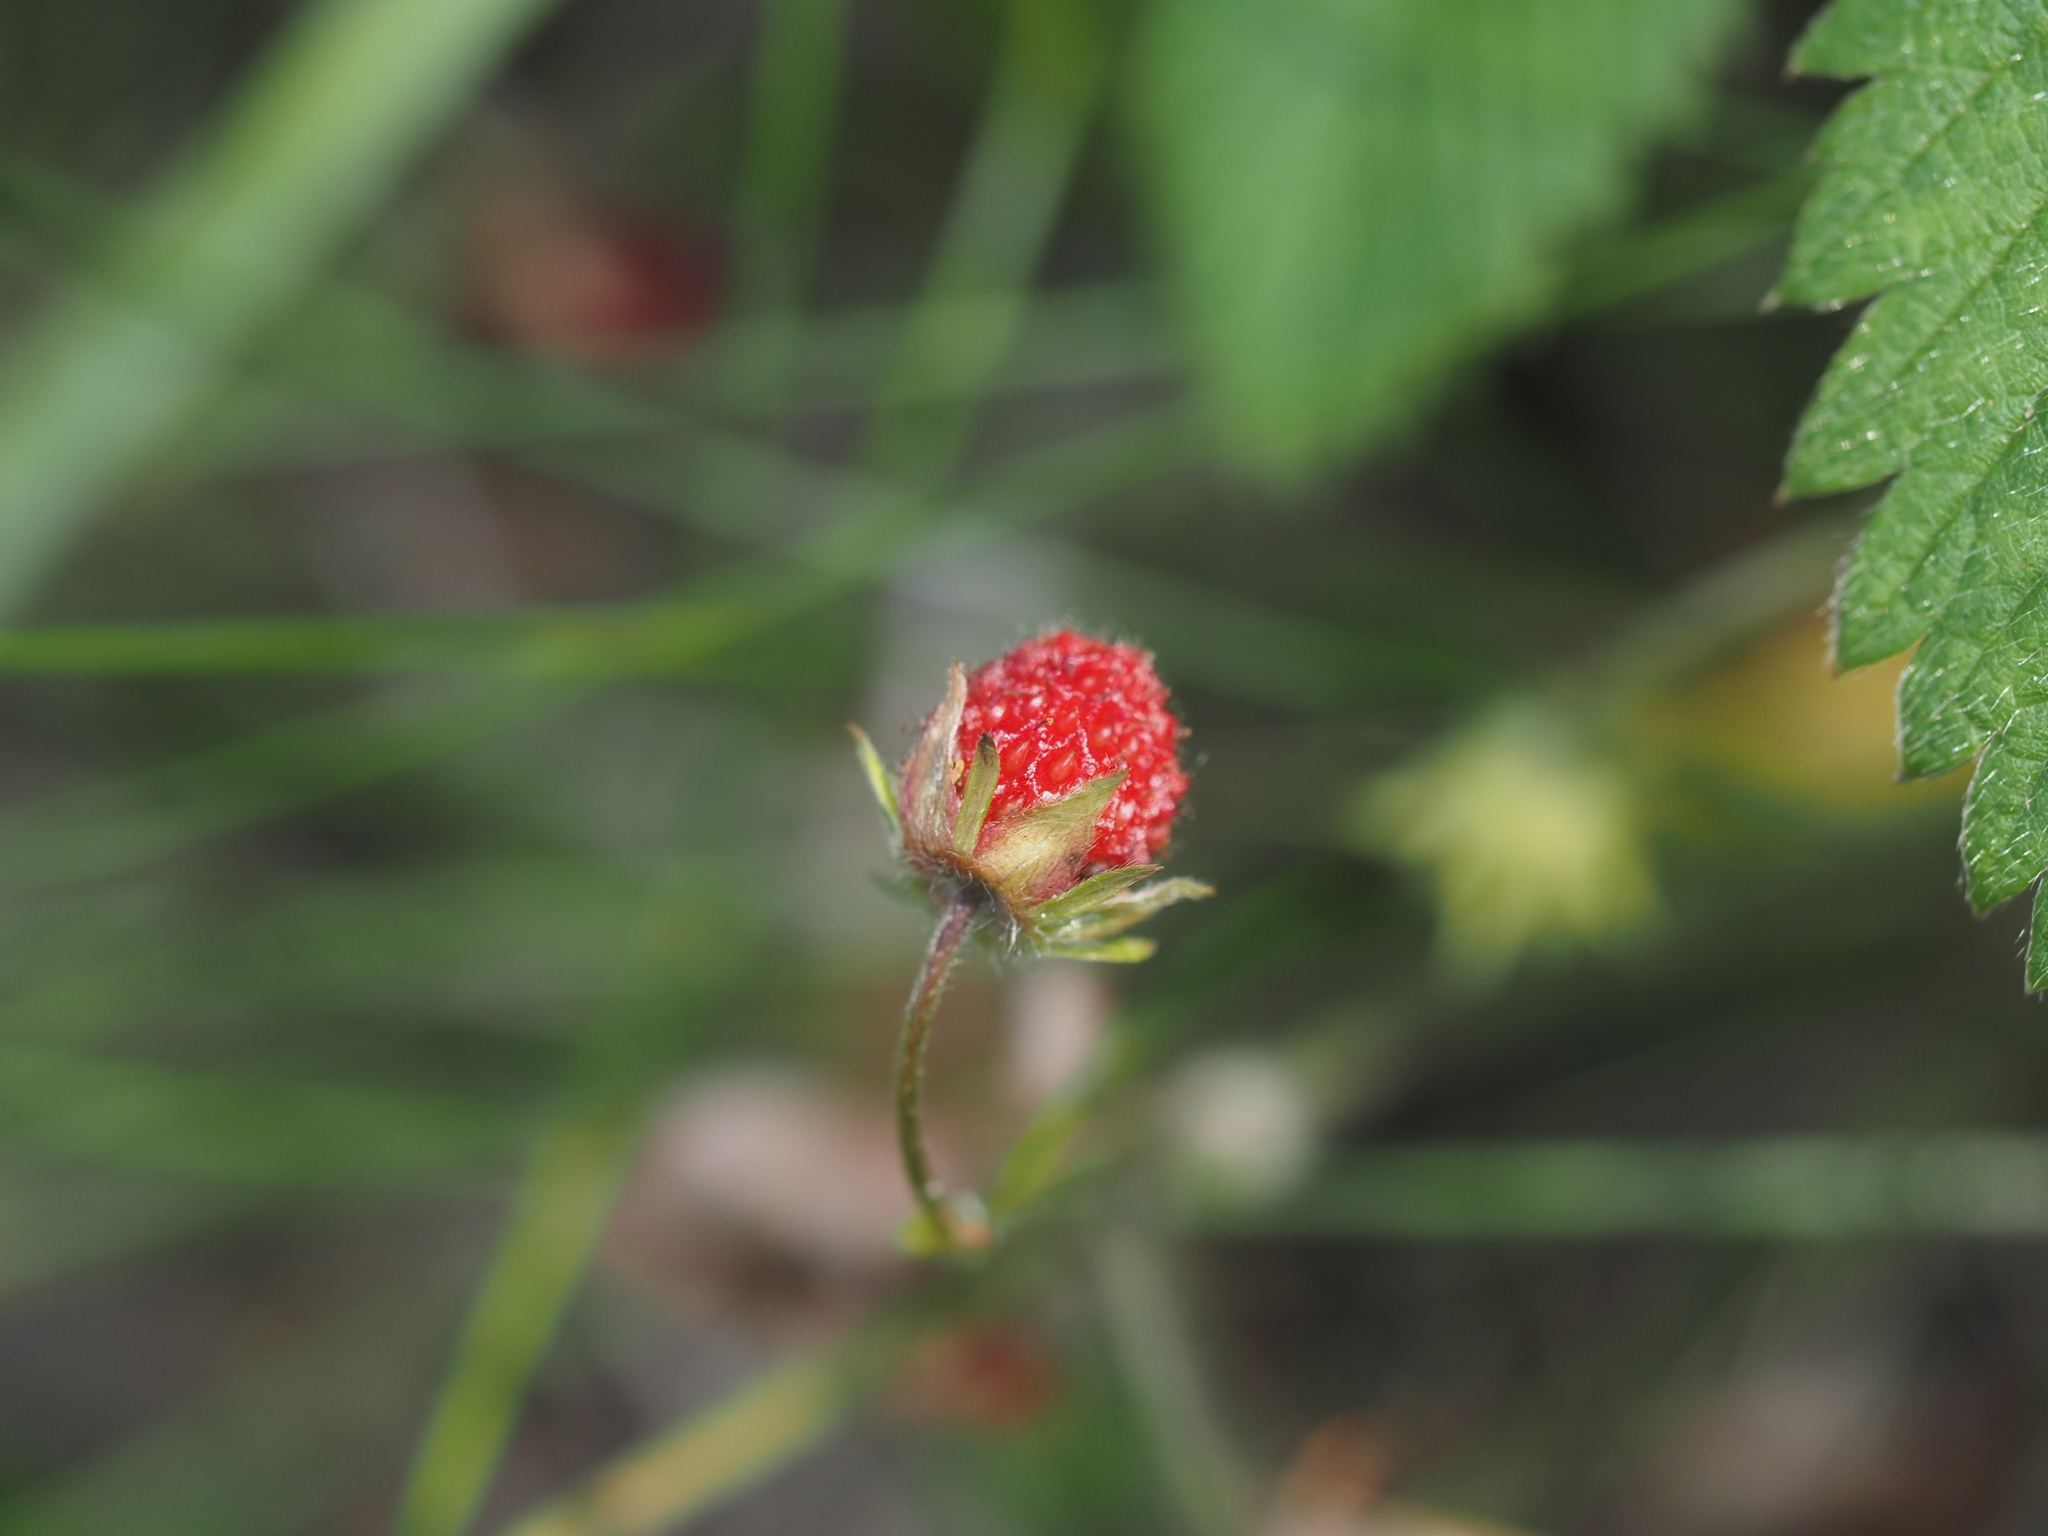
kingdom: Plantae
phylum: Tracheophyta
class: Magnoliopsida
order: Rosales
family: Rosaceae
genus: Fragaria
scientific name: Fragaria vesca
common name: Wild strawberry
